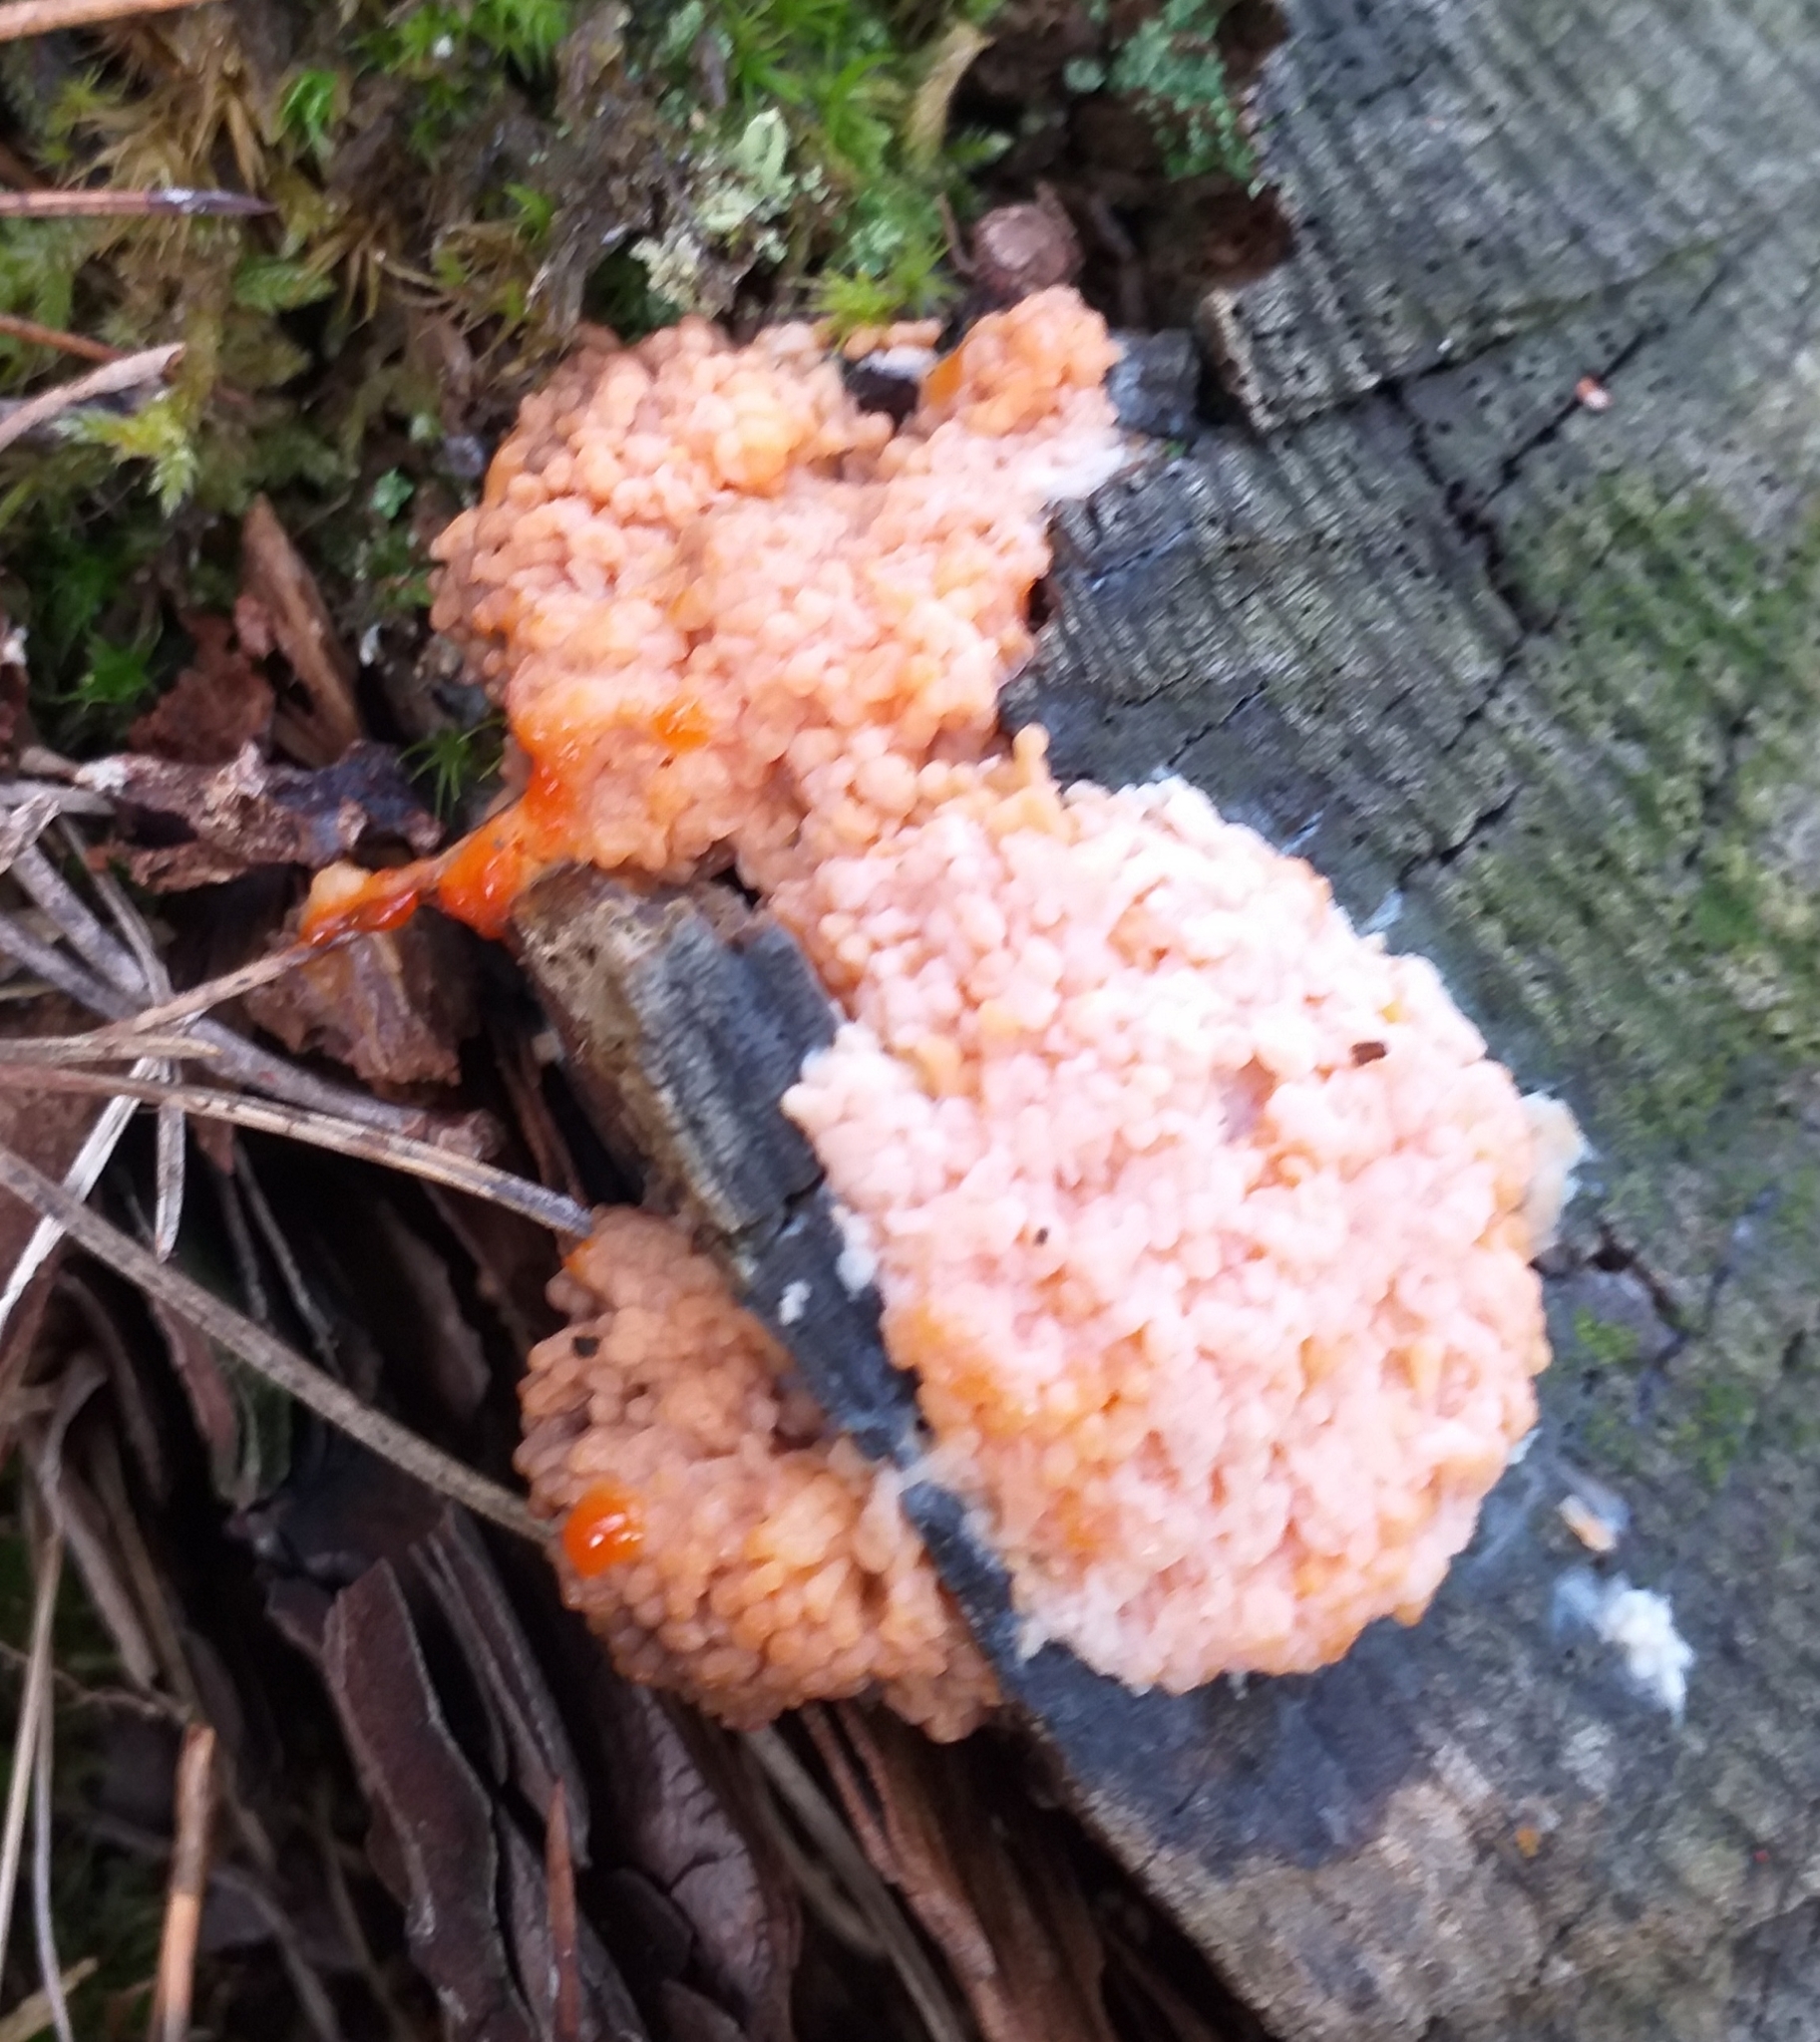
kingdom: Protozoa
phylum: Mycetozoa
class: Myxomycetes
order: Cribrariales
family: Tubiferaceae
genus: Tubifera
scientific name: Tubifera ferruginosa
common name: Red raspberry slime mold
